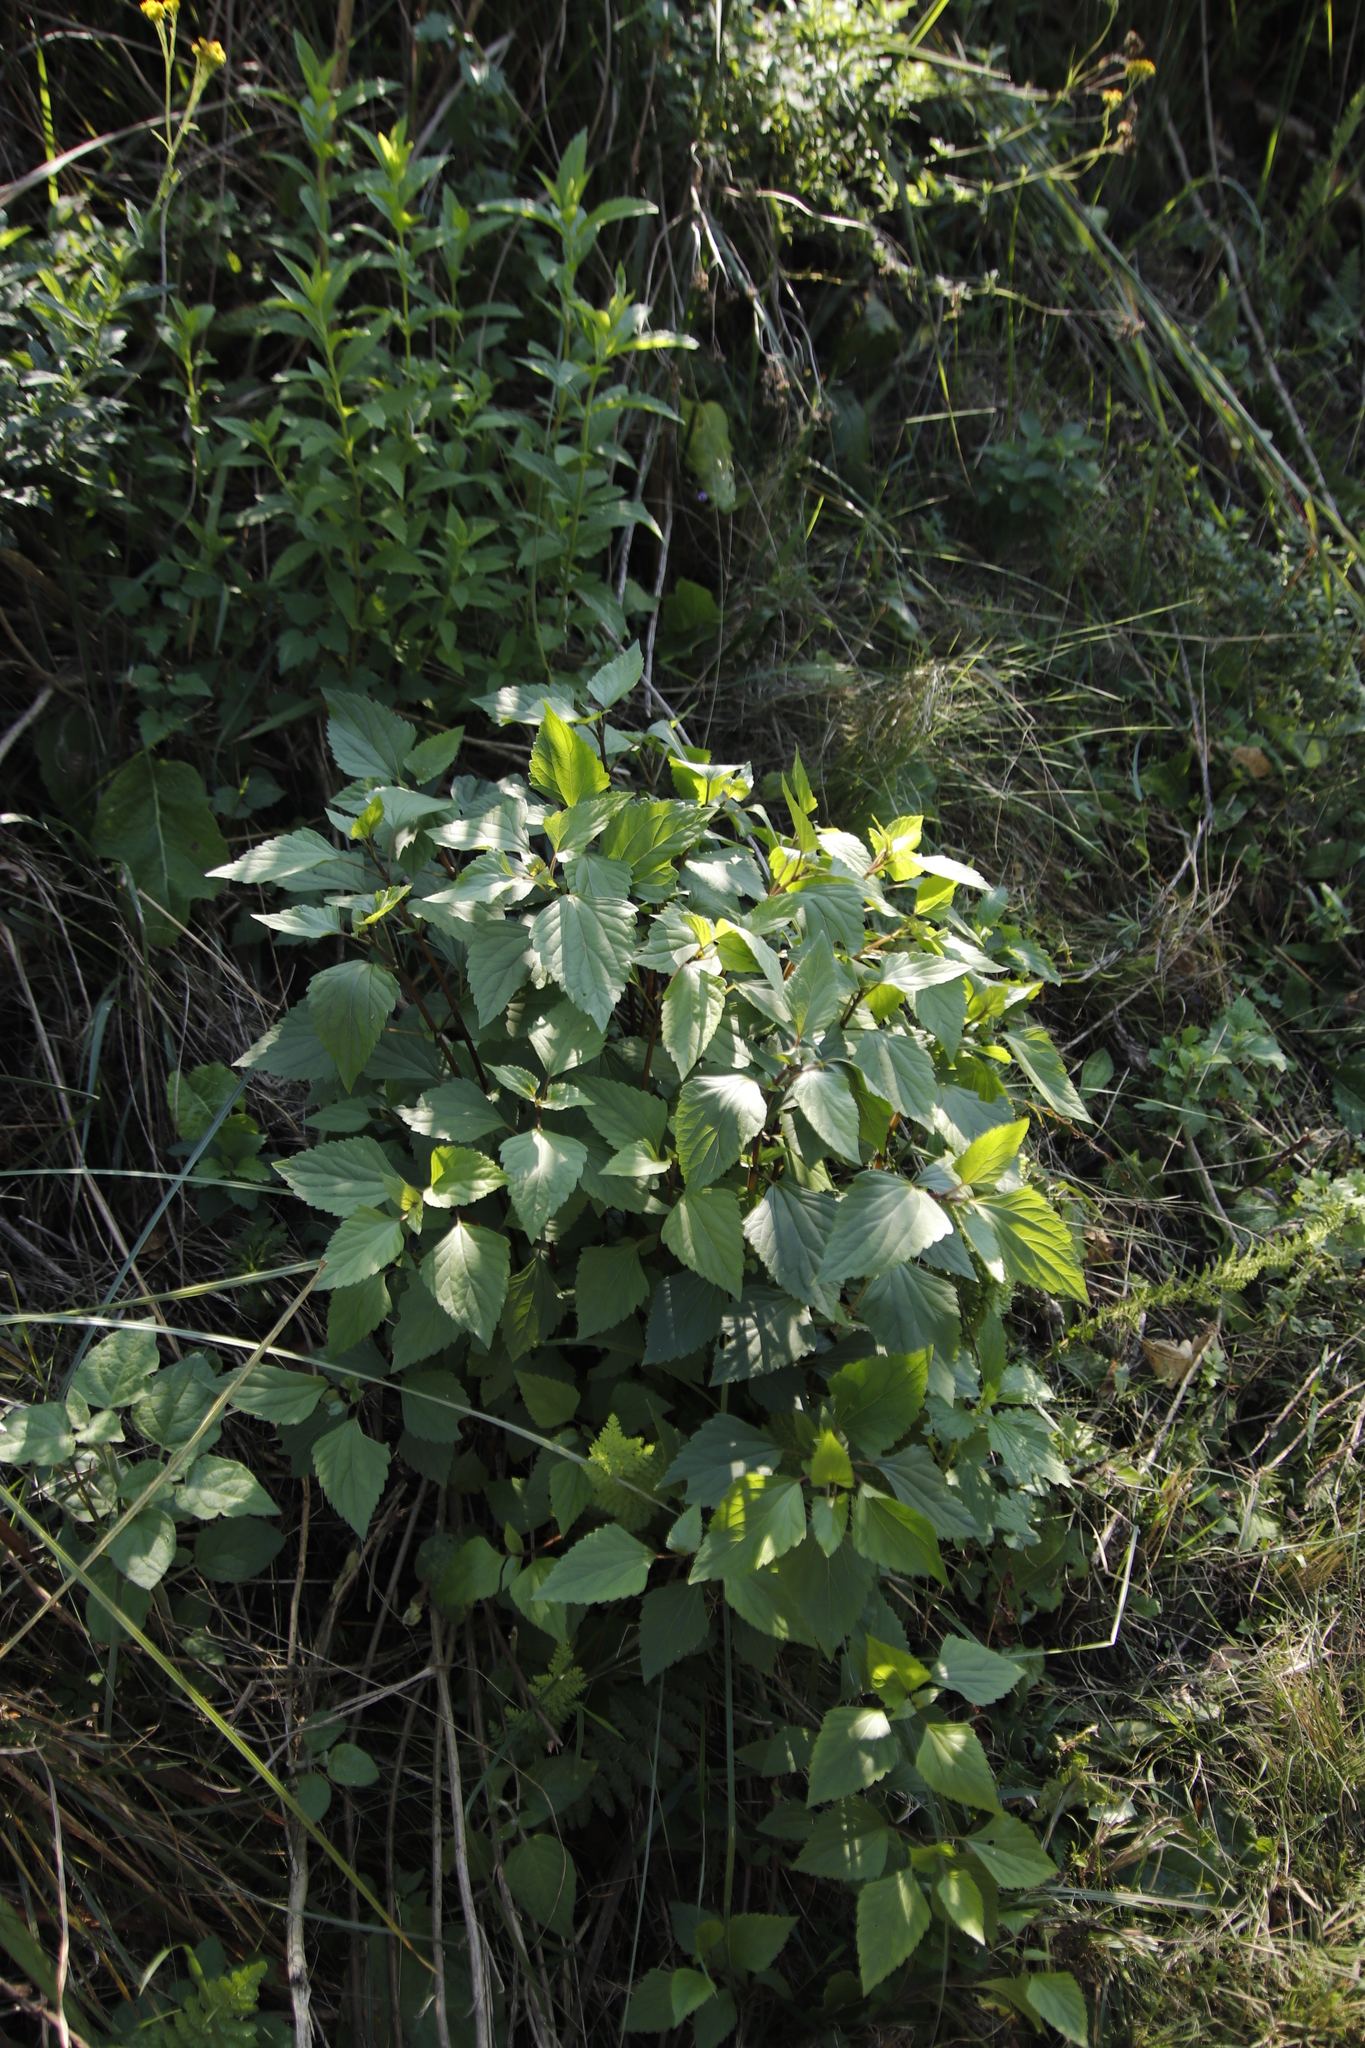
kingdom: Plantae
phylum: Tracheophyta
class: Magnoliopsida
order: Asterales
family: Asteraceae
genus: Ageratina
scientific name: Ageratina adenophora
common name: Sticky snakeroot
